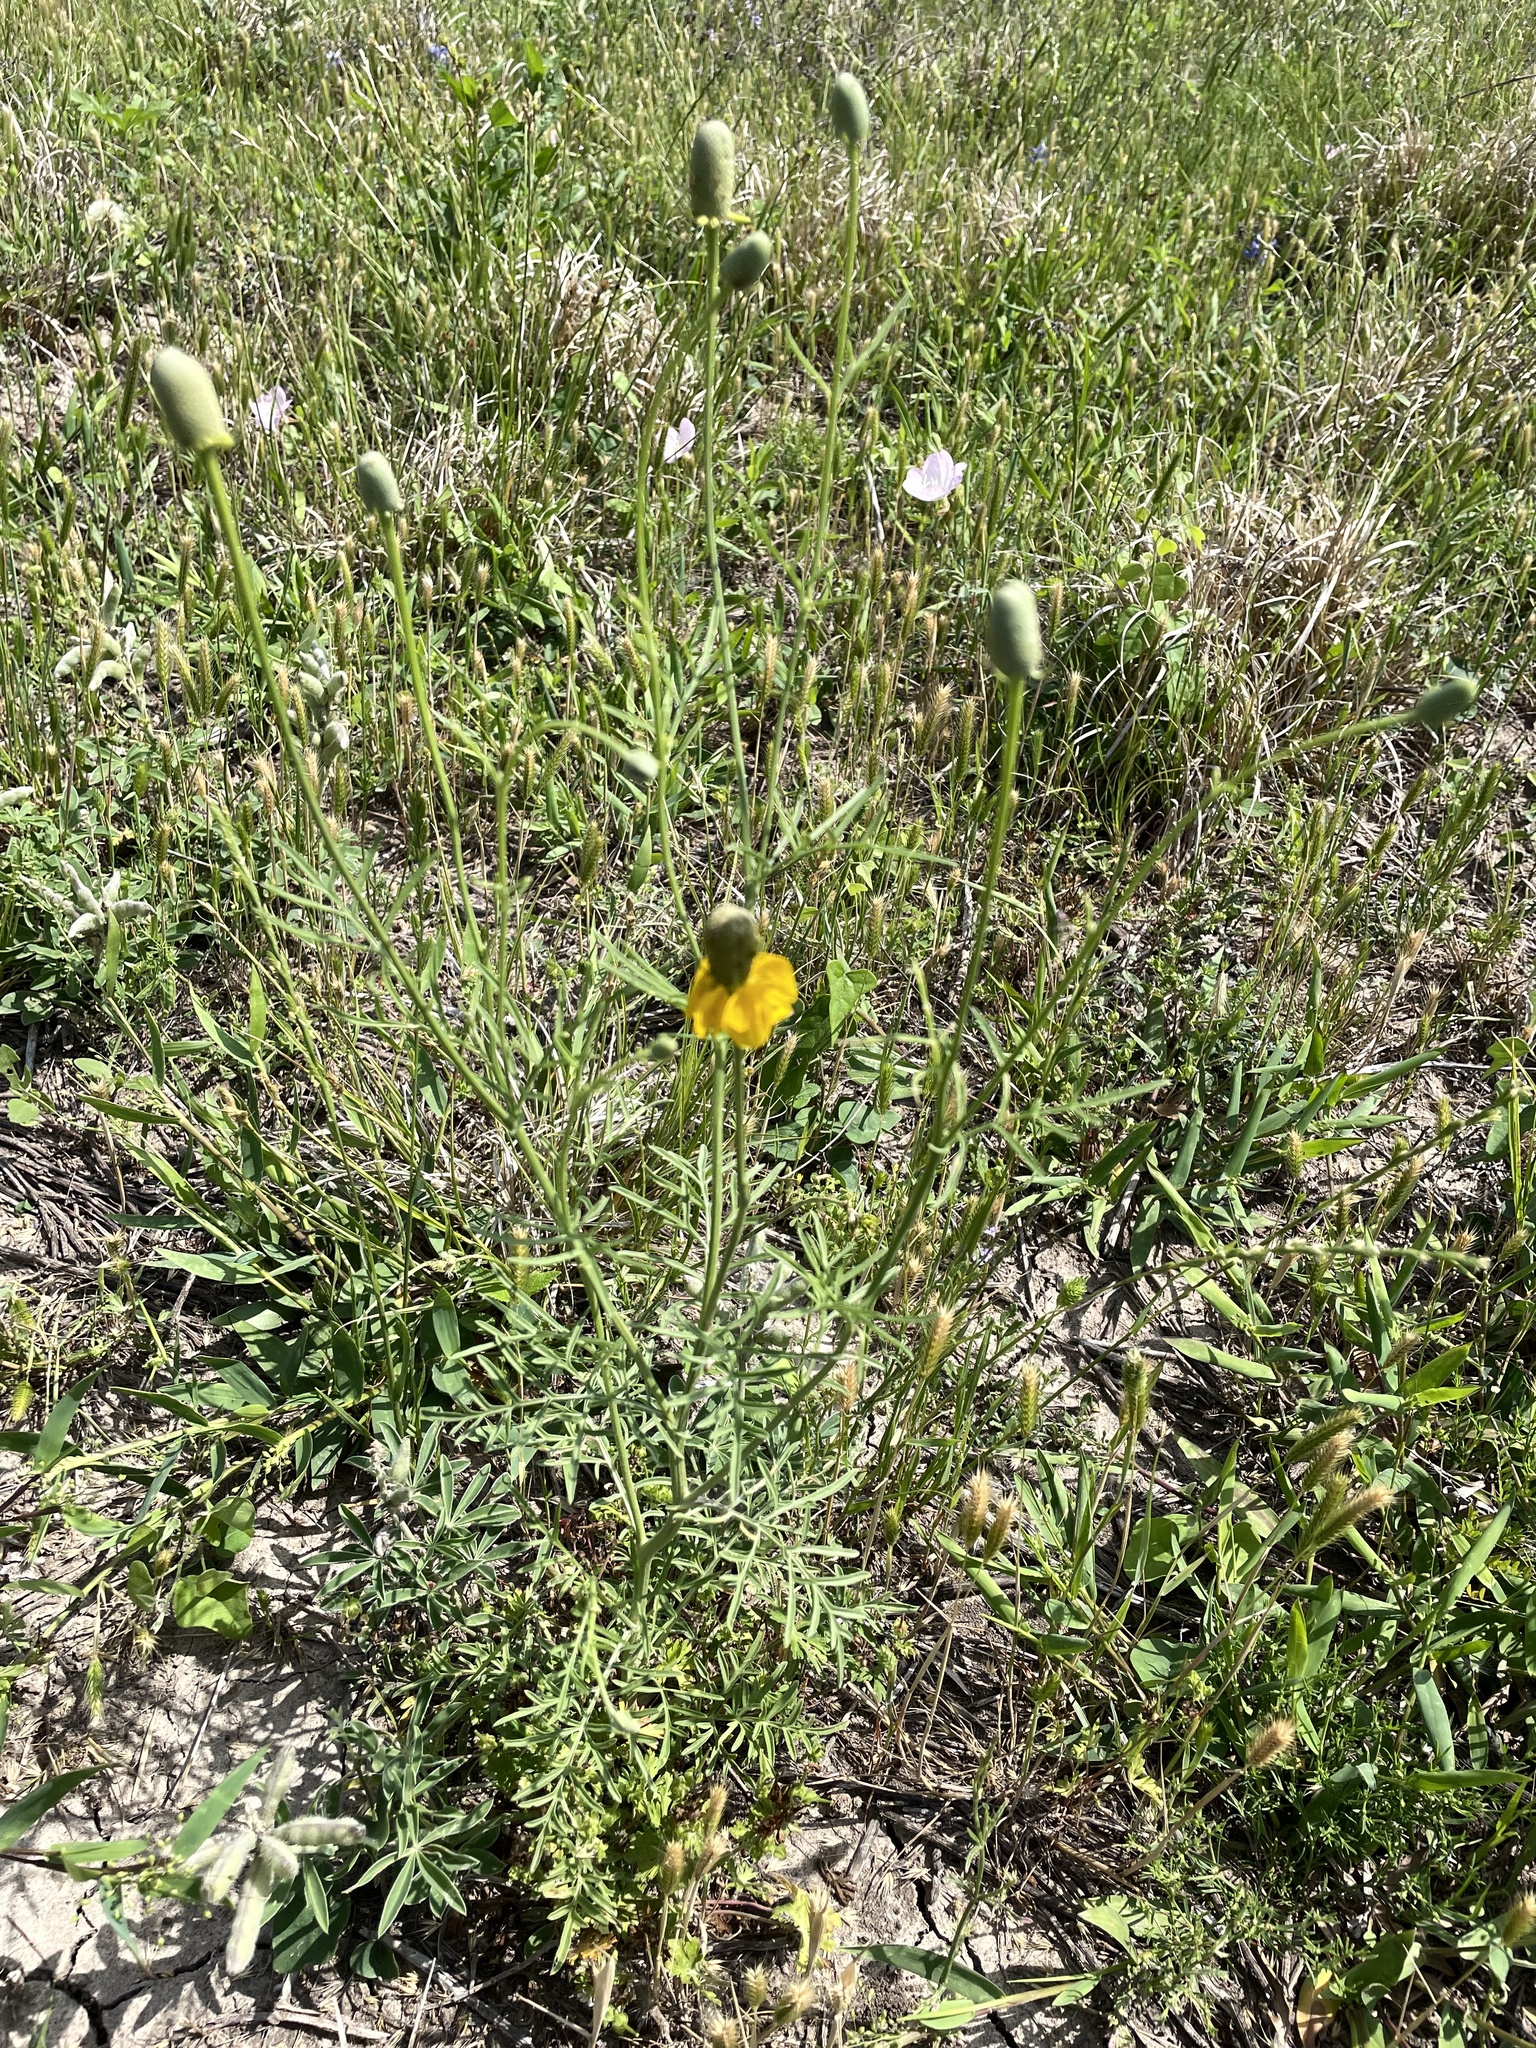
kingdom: Plantae
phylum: Tracheophyta
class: Magnoliopsida
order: Asterales
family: Asteraceae
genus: Ratibida
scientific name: Ratibida columnifera
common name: Prairie coneflower
